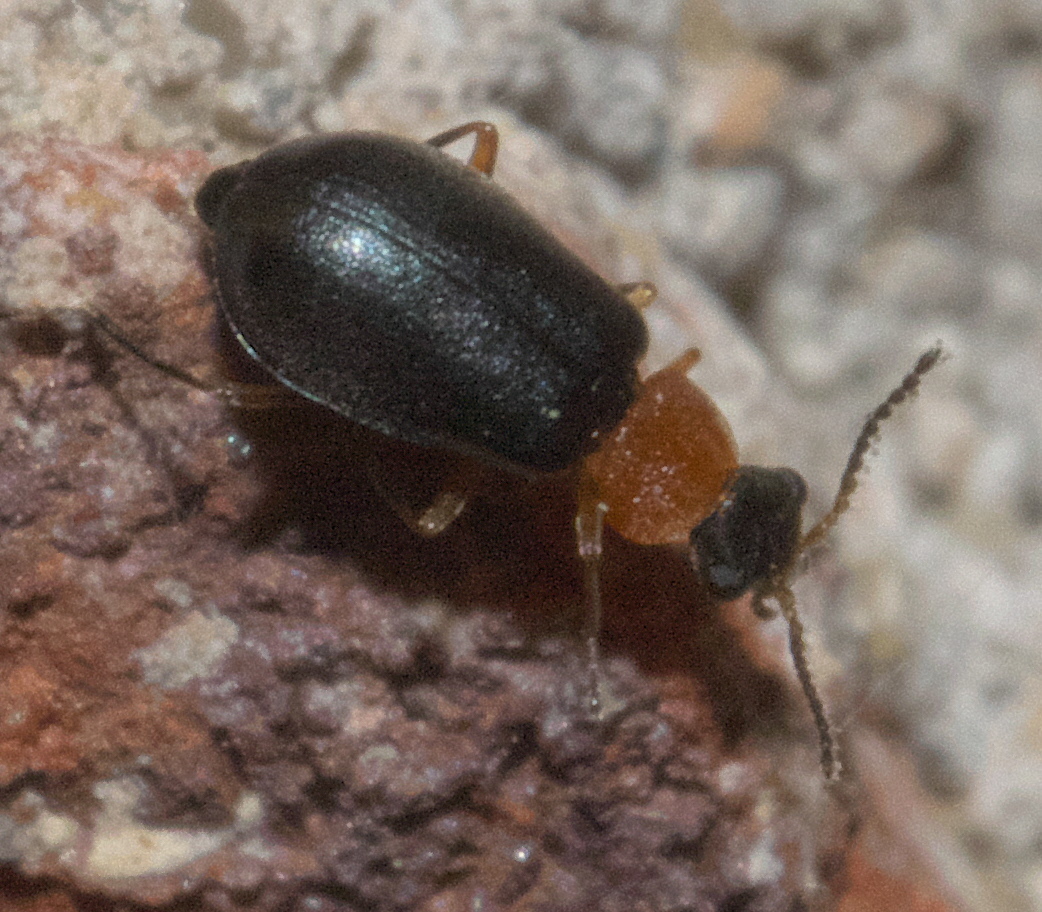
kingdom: Animalia
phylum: Arthropoda
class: Insecta
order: Coleoptera
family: Melyridae
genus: Hypebaeus
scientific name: Hypebaeus bicolor
